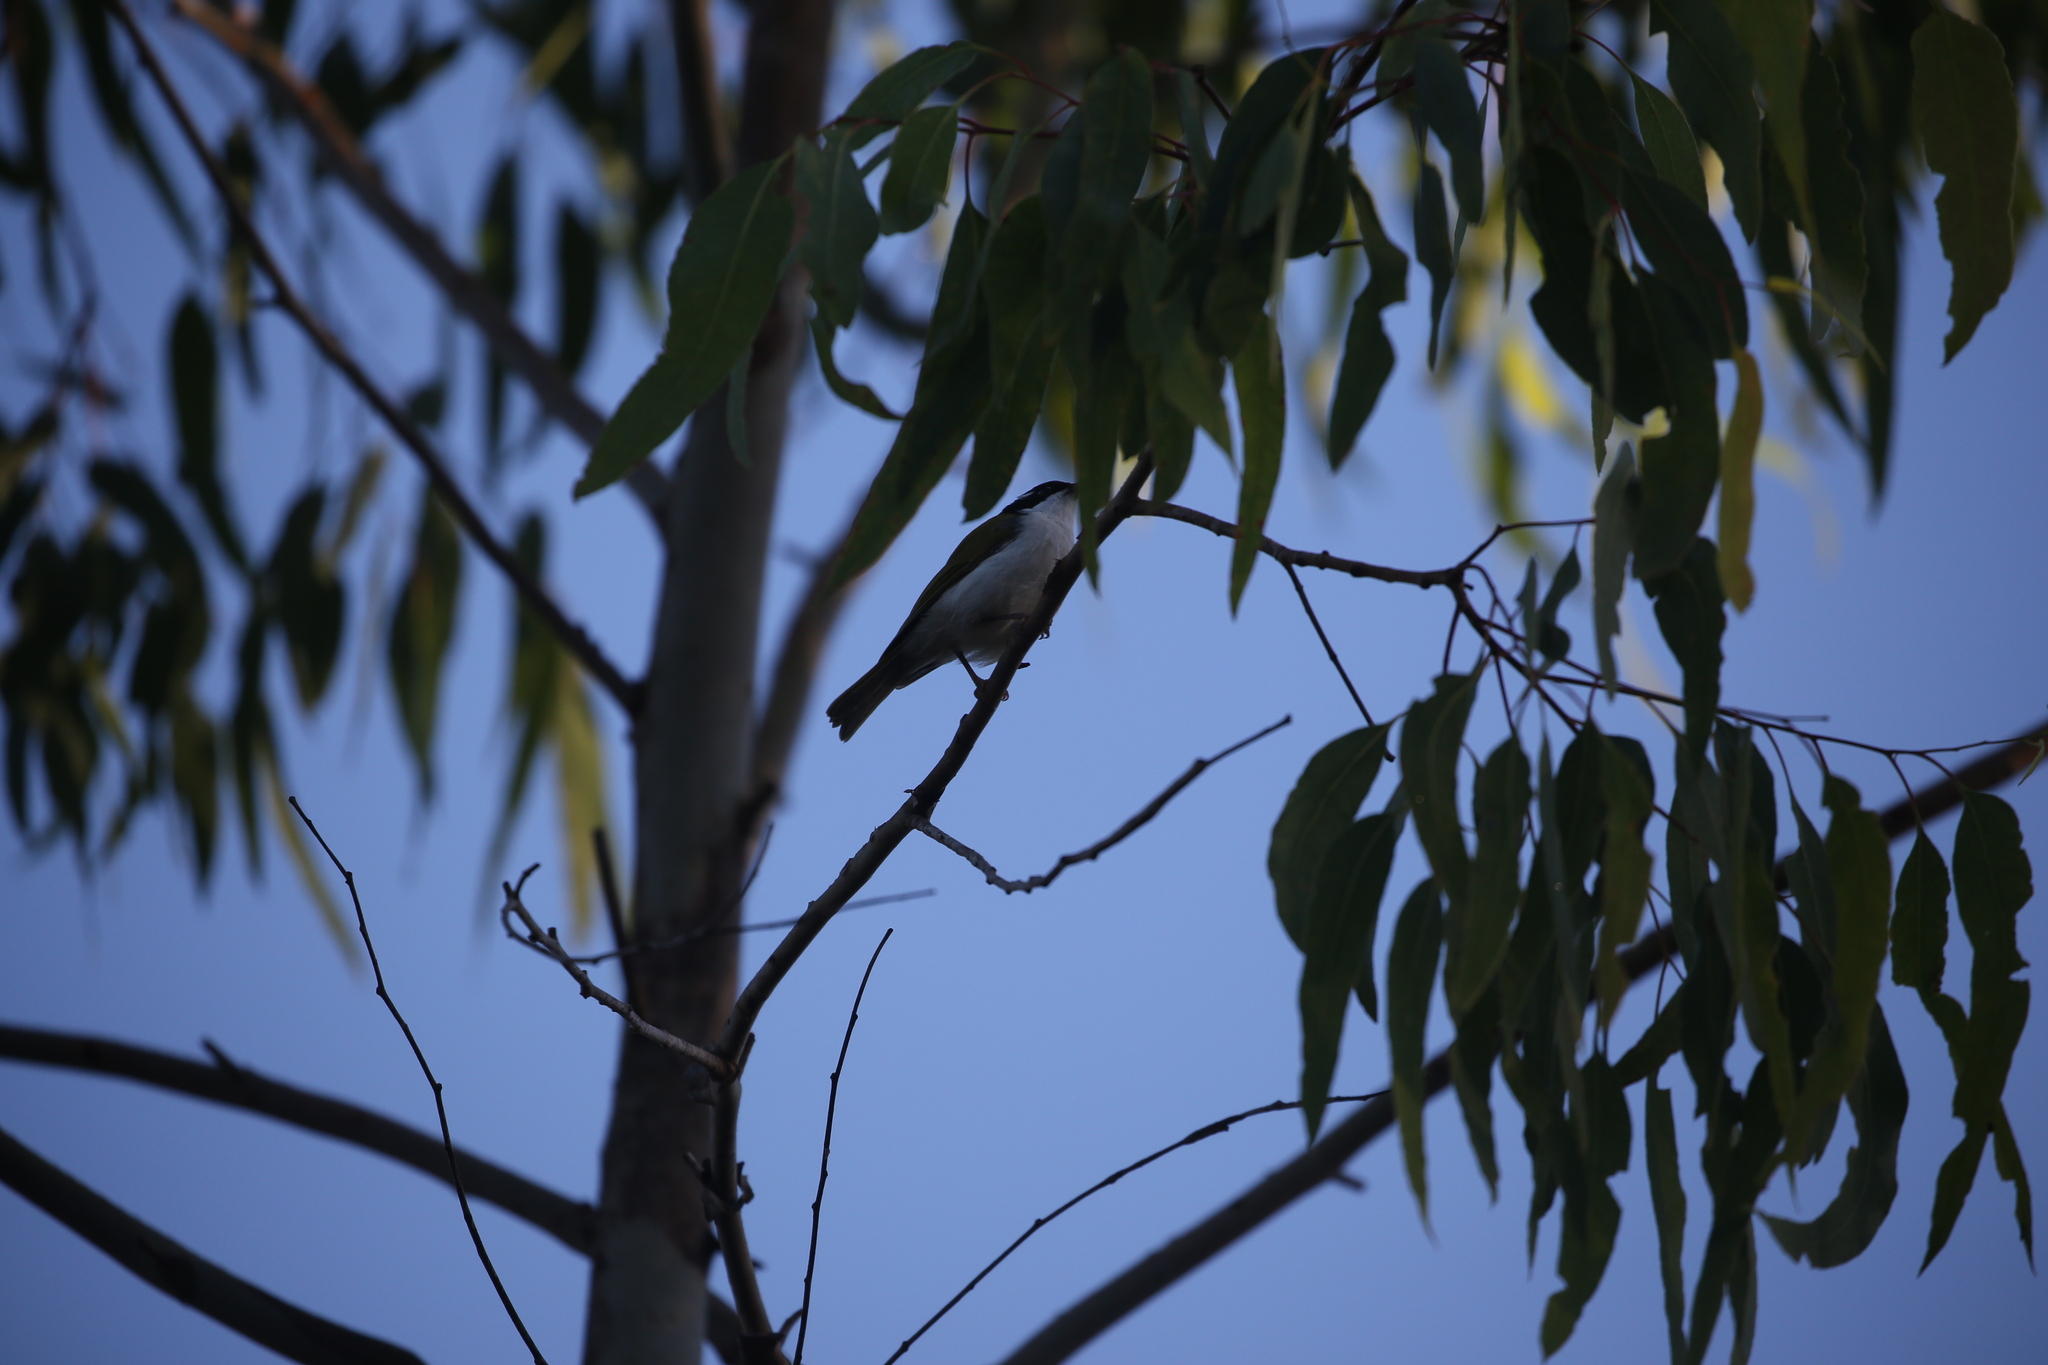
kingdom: Animalia
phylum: Chordata
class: Aves
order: Passeriformes
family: Meliphagidae
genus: Melithreptus
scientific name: Melithreptus albogularis
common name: White-throated honeyeater
